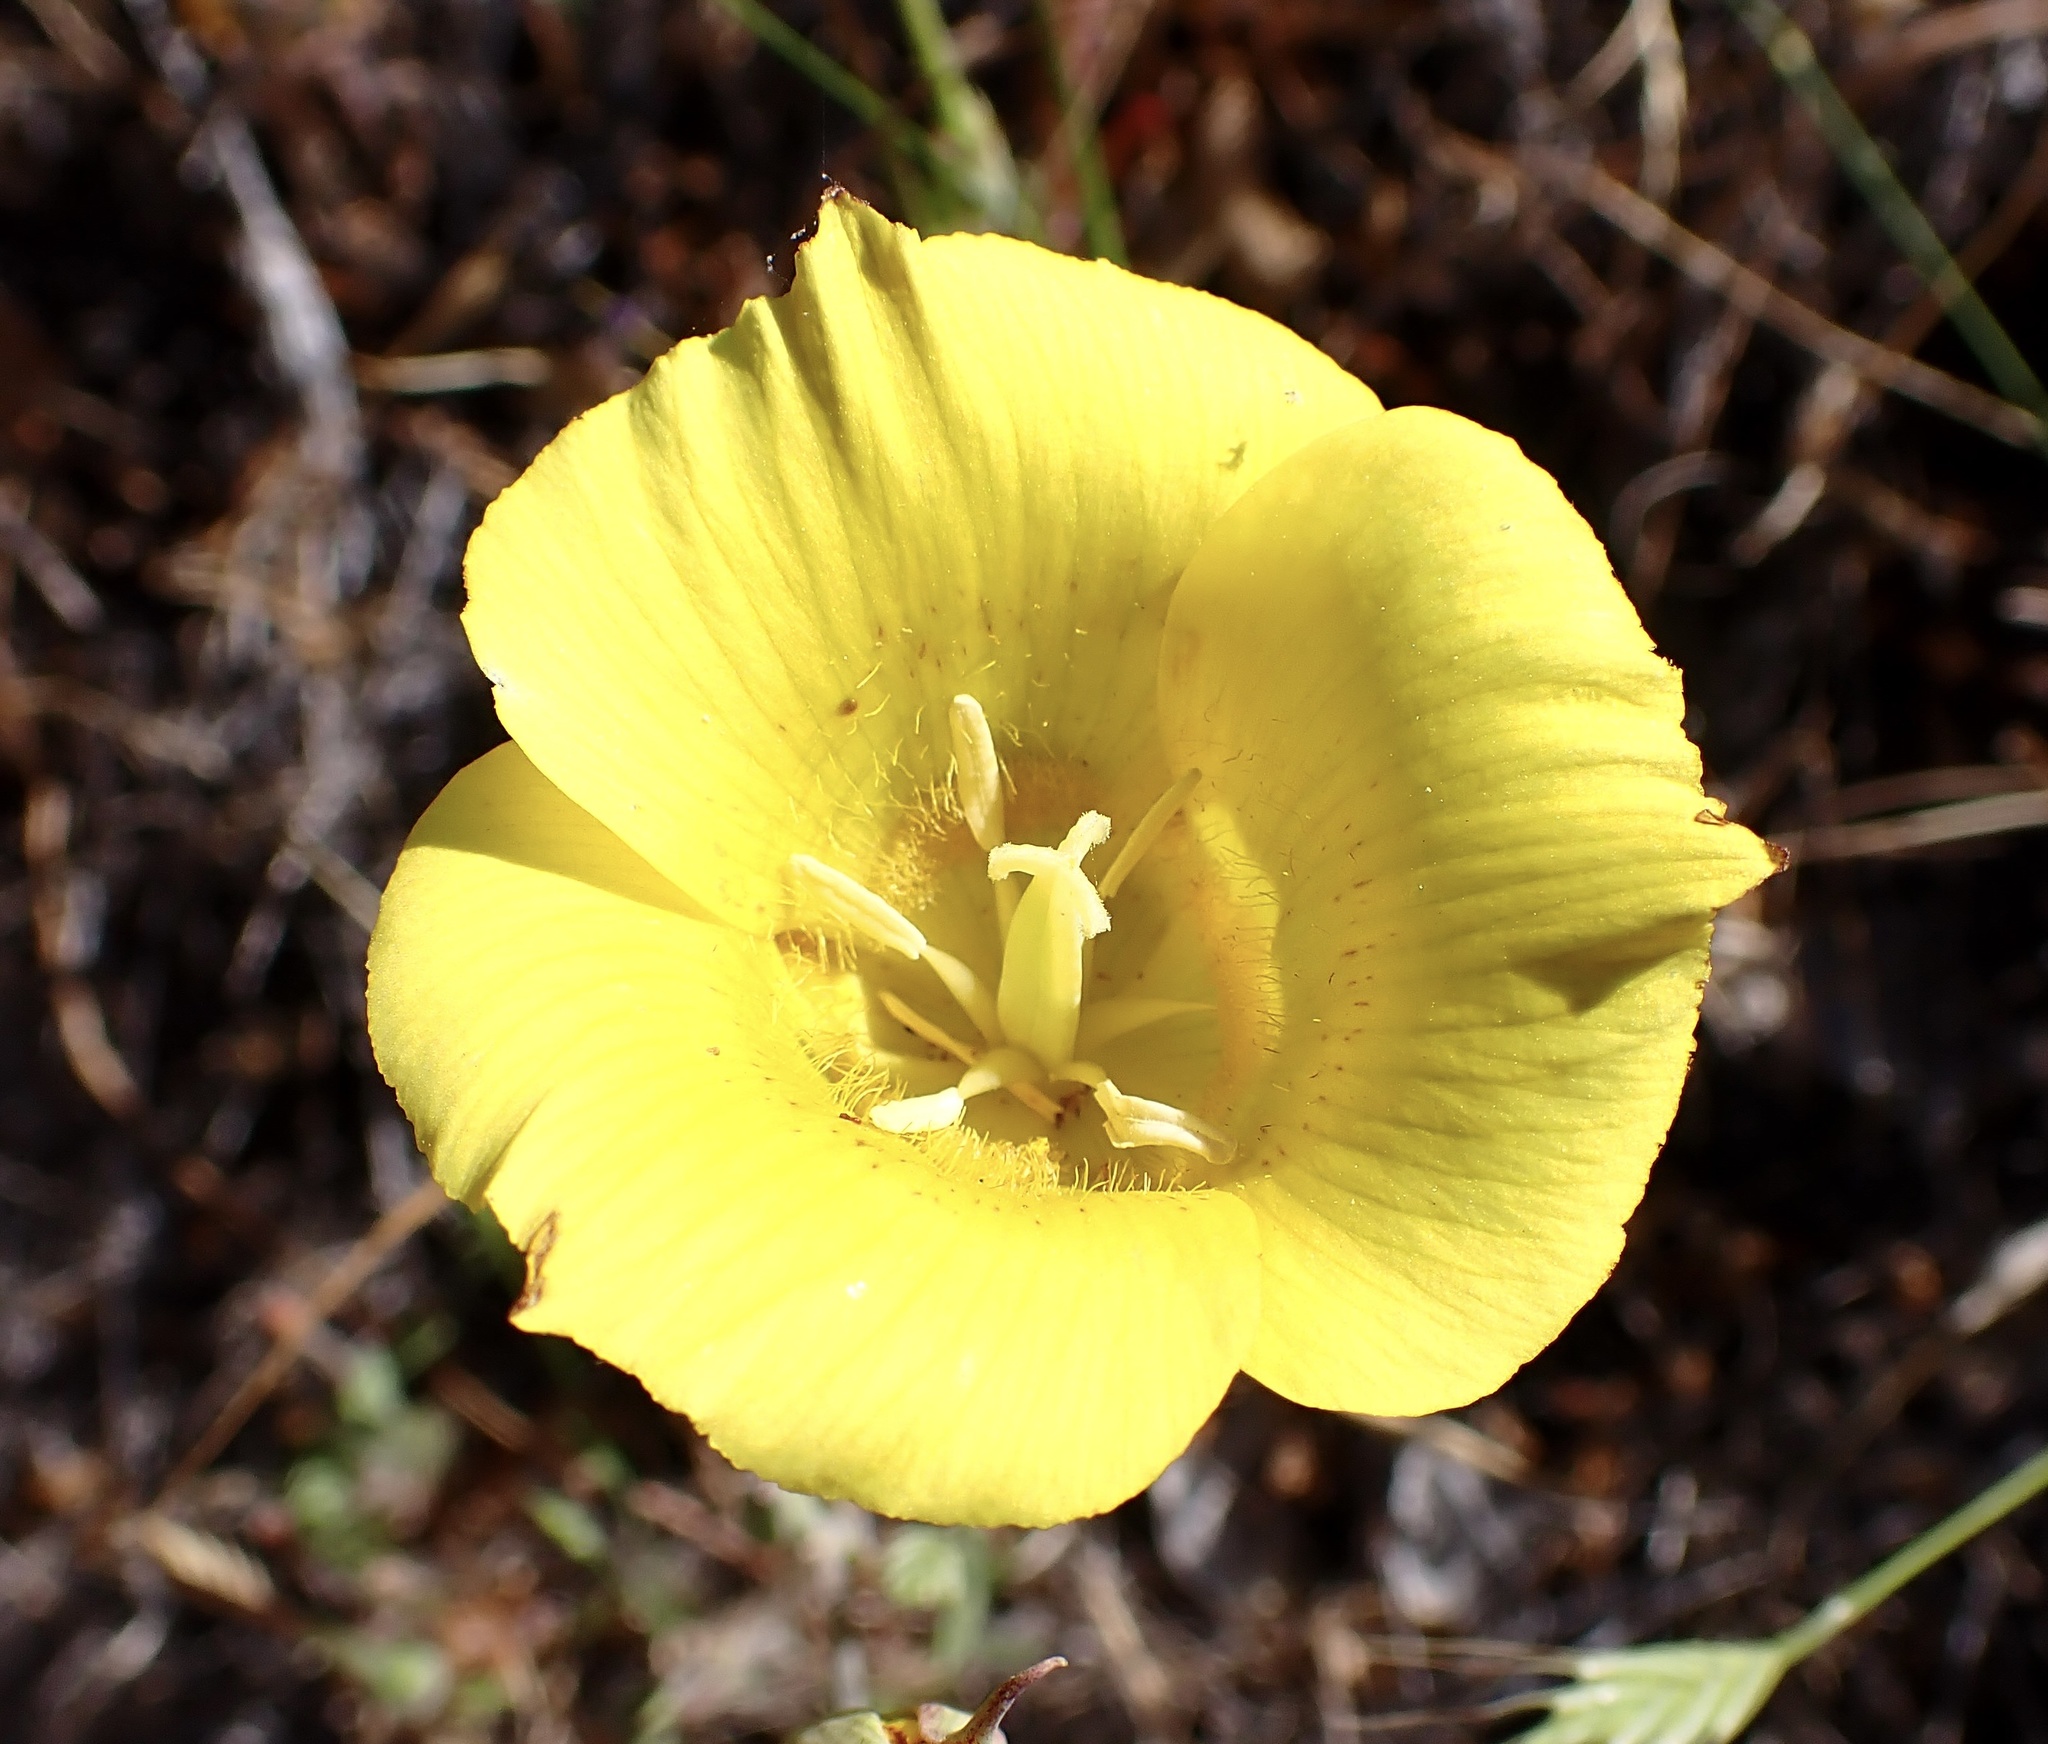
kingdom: Plantae
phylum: Tracheophyta
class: Liliopsida
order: Liliales
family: Liliaceae
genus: Calochortus
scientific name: Calochortus luteus
